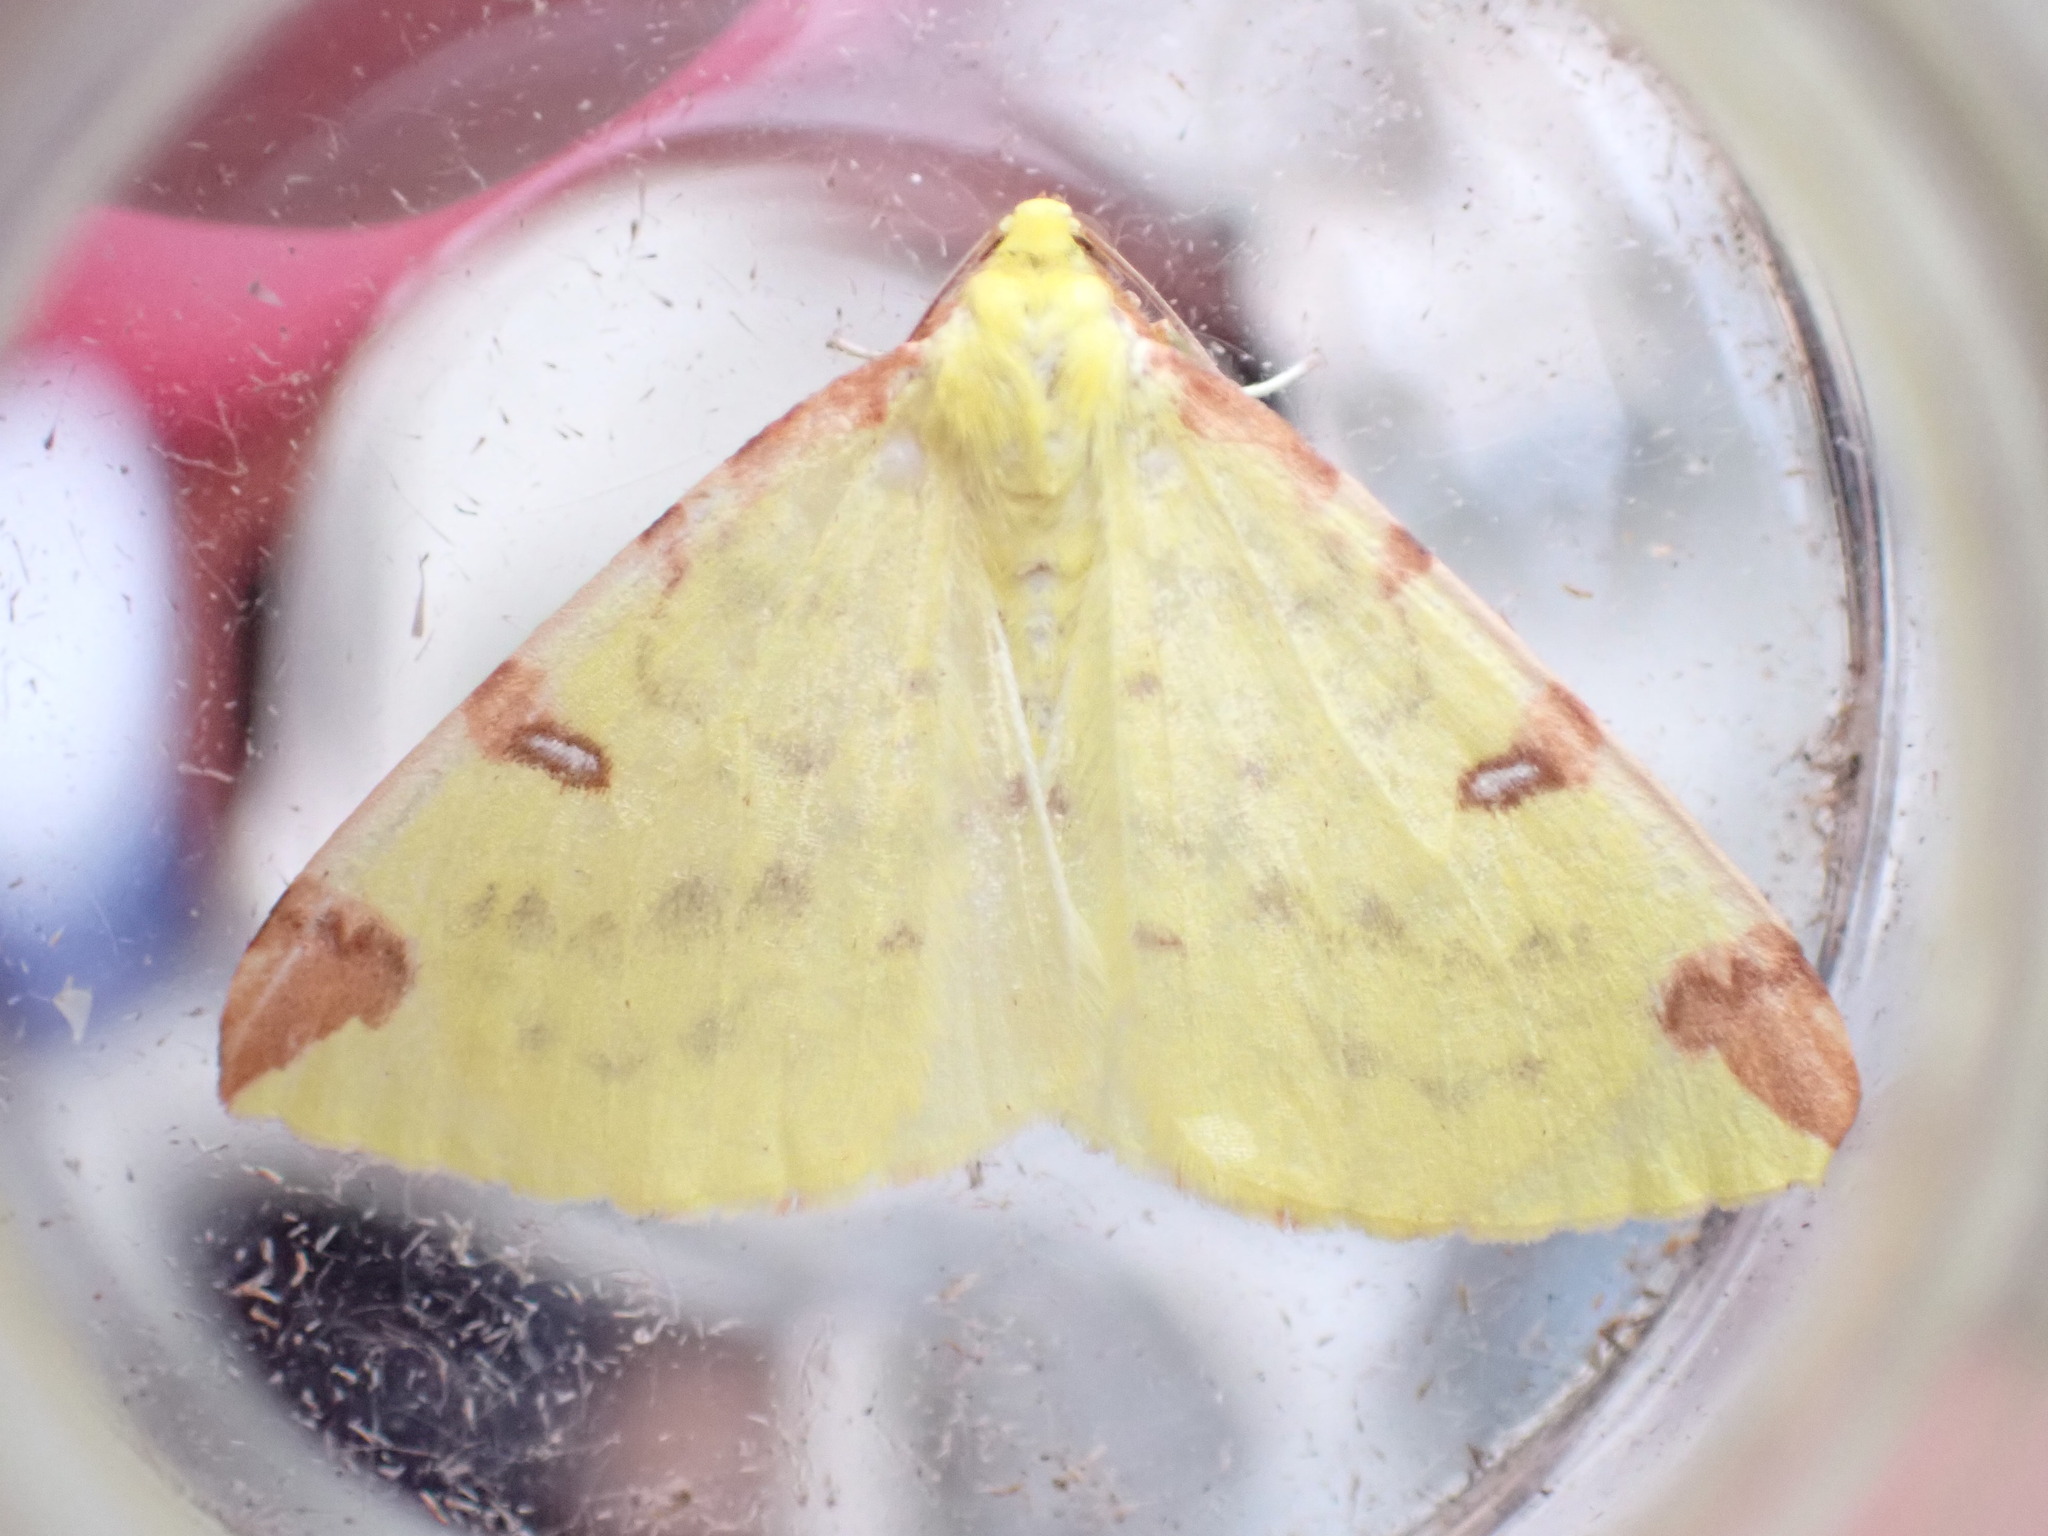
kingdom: Animalia
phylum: Arthropoda
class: Insecta
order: Lepidoptera
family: Geometridae
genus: Opisthograptis
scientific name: Opisthograptis luteolata
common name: Brimstone moth
